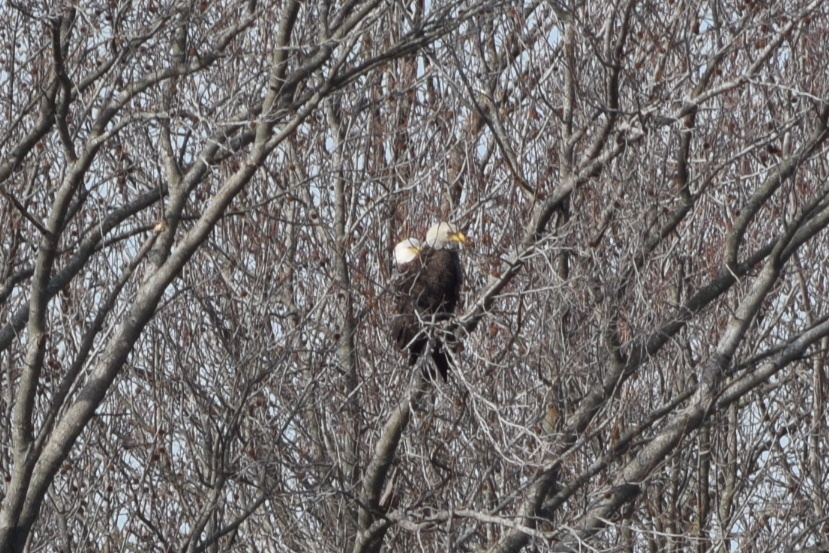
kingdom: Animalia
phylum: Chordata
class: Aves
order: Accipitriformes
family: Accipitridae
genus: Haliaeetus
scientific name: Haliaeetus leucocephalus
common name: Bald eagle
